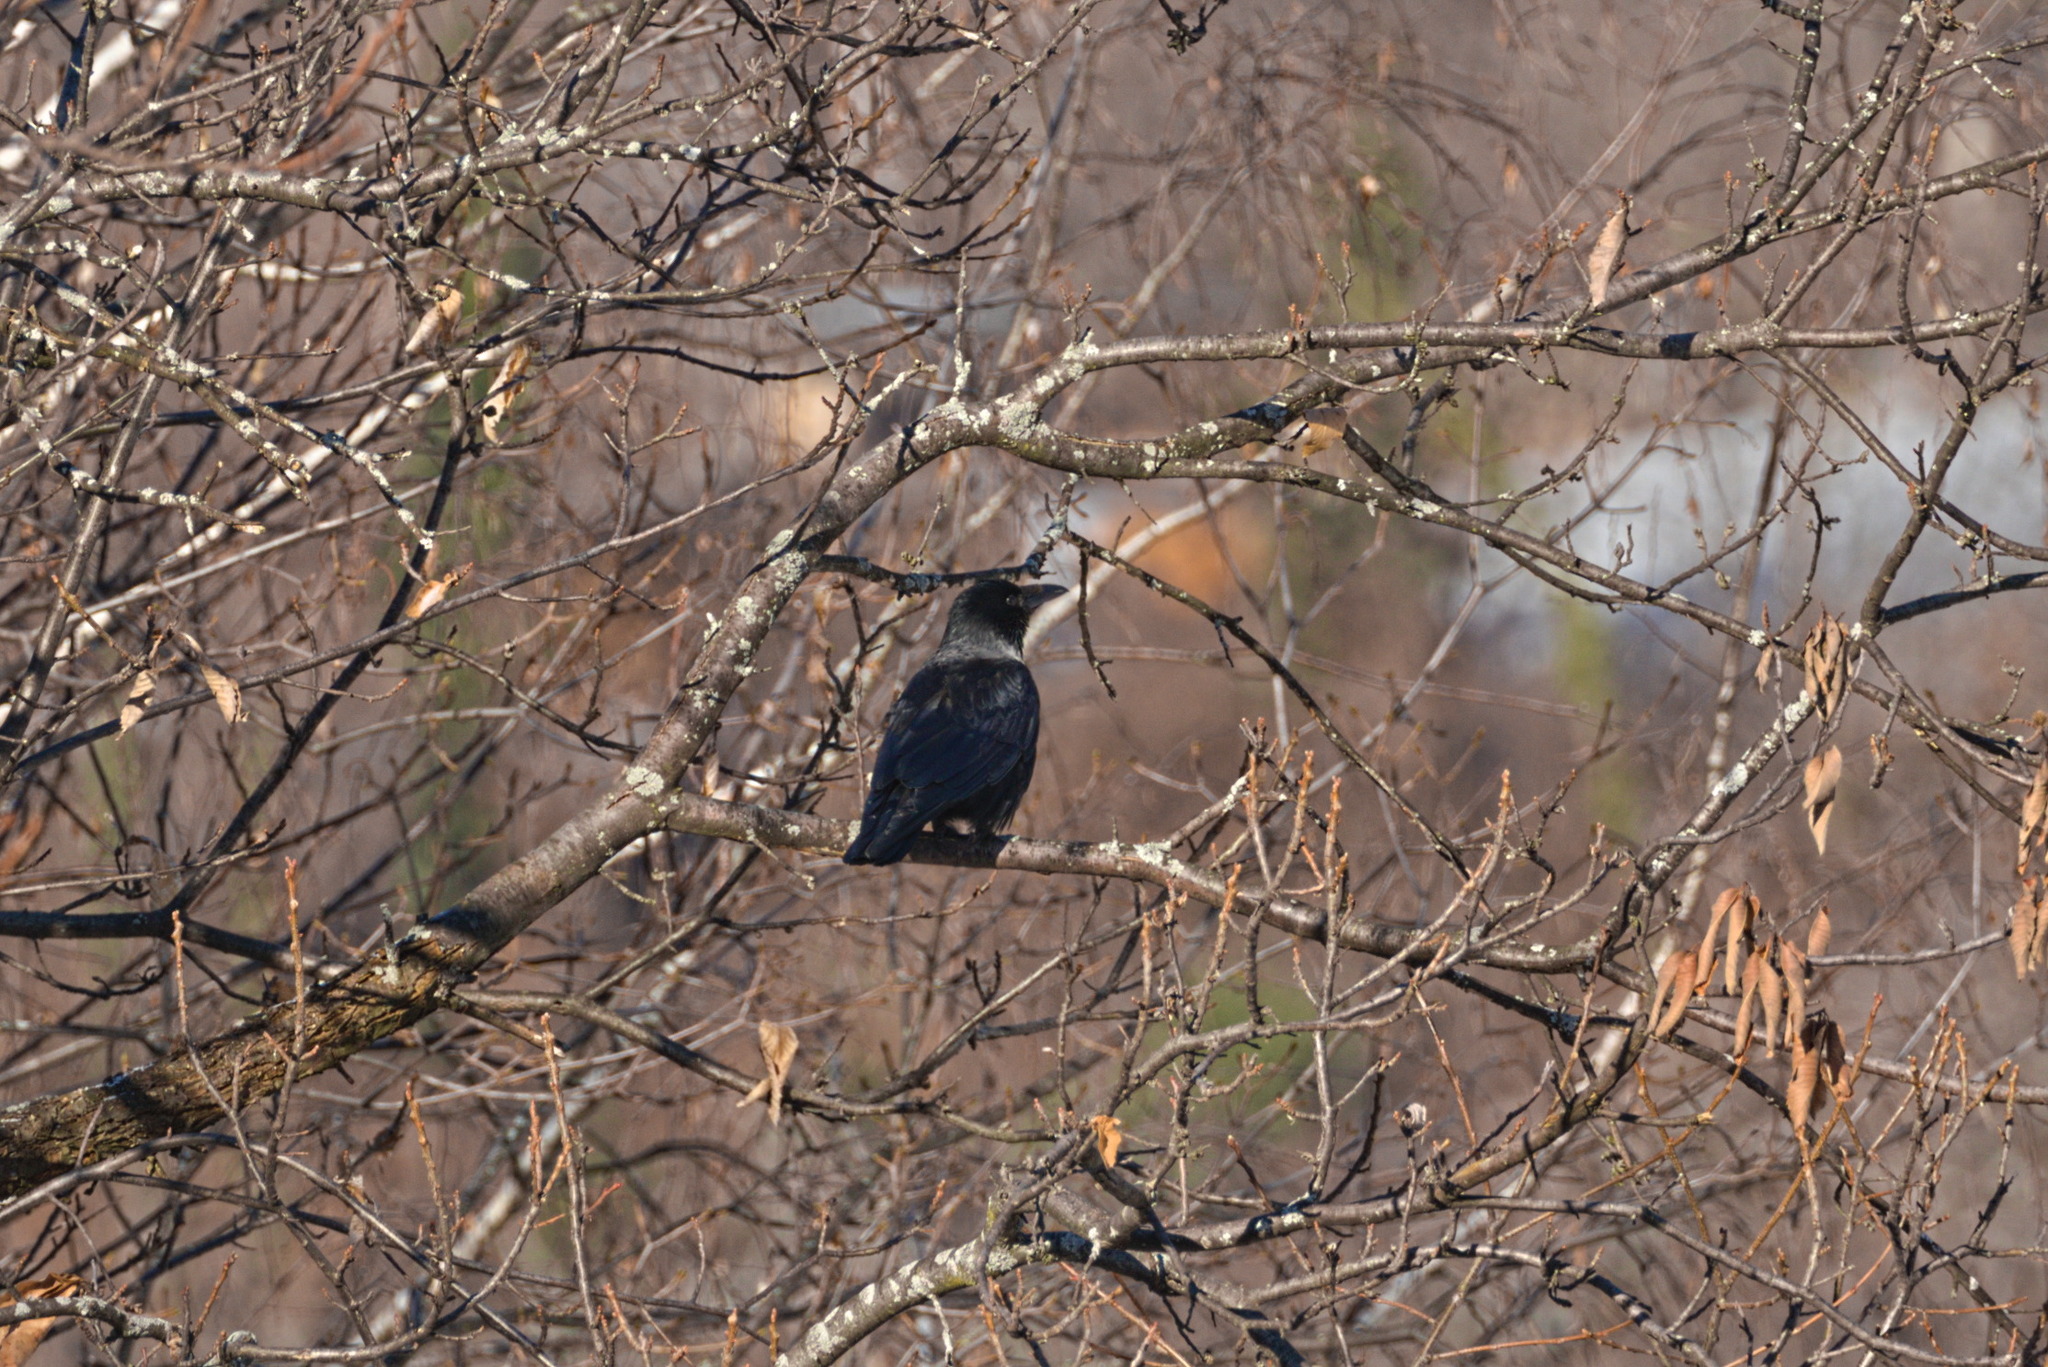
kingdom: Animalia
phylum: Chordata
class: Aves
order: Passeriformes
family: Corvidae
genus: Corvus
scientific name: Corvus
